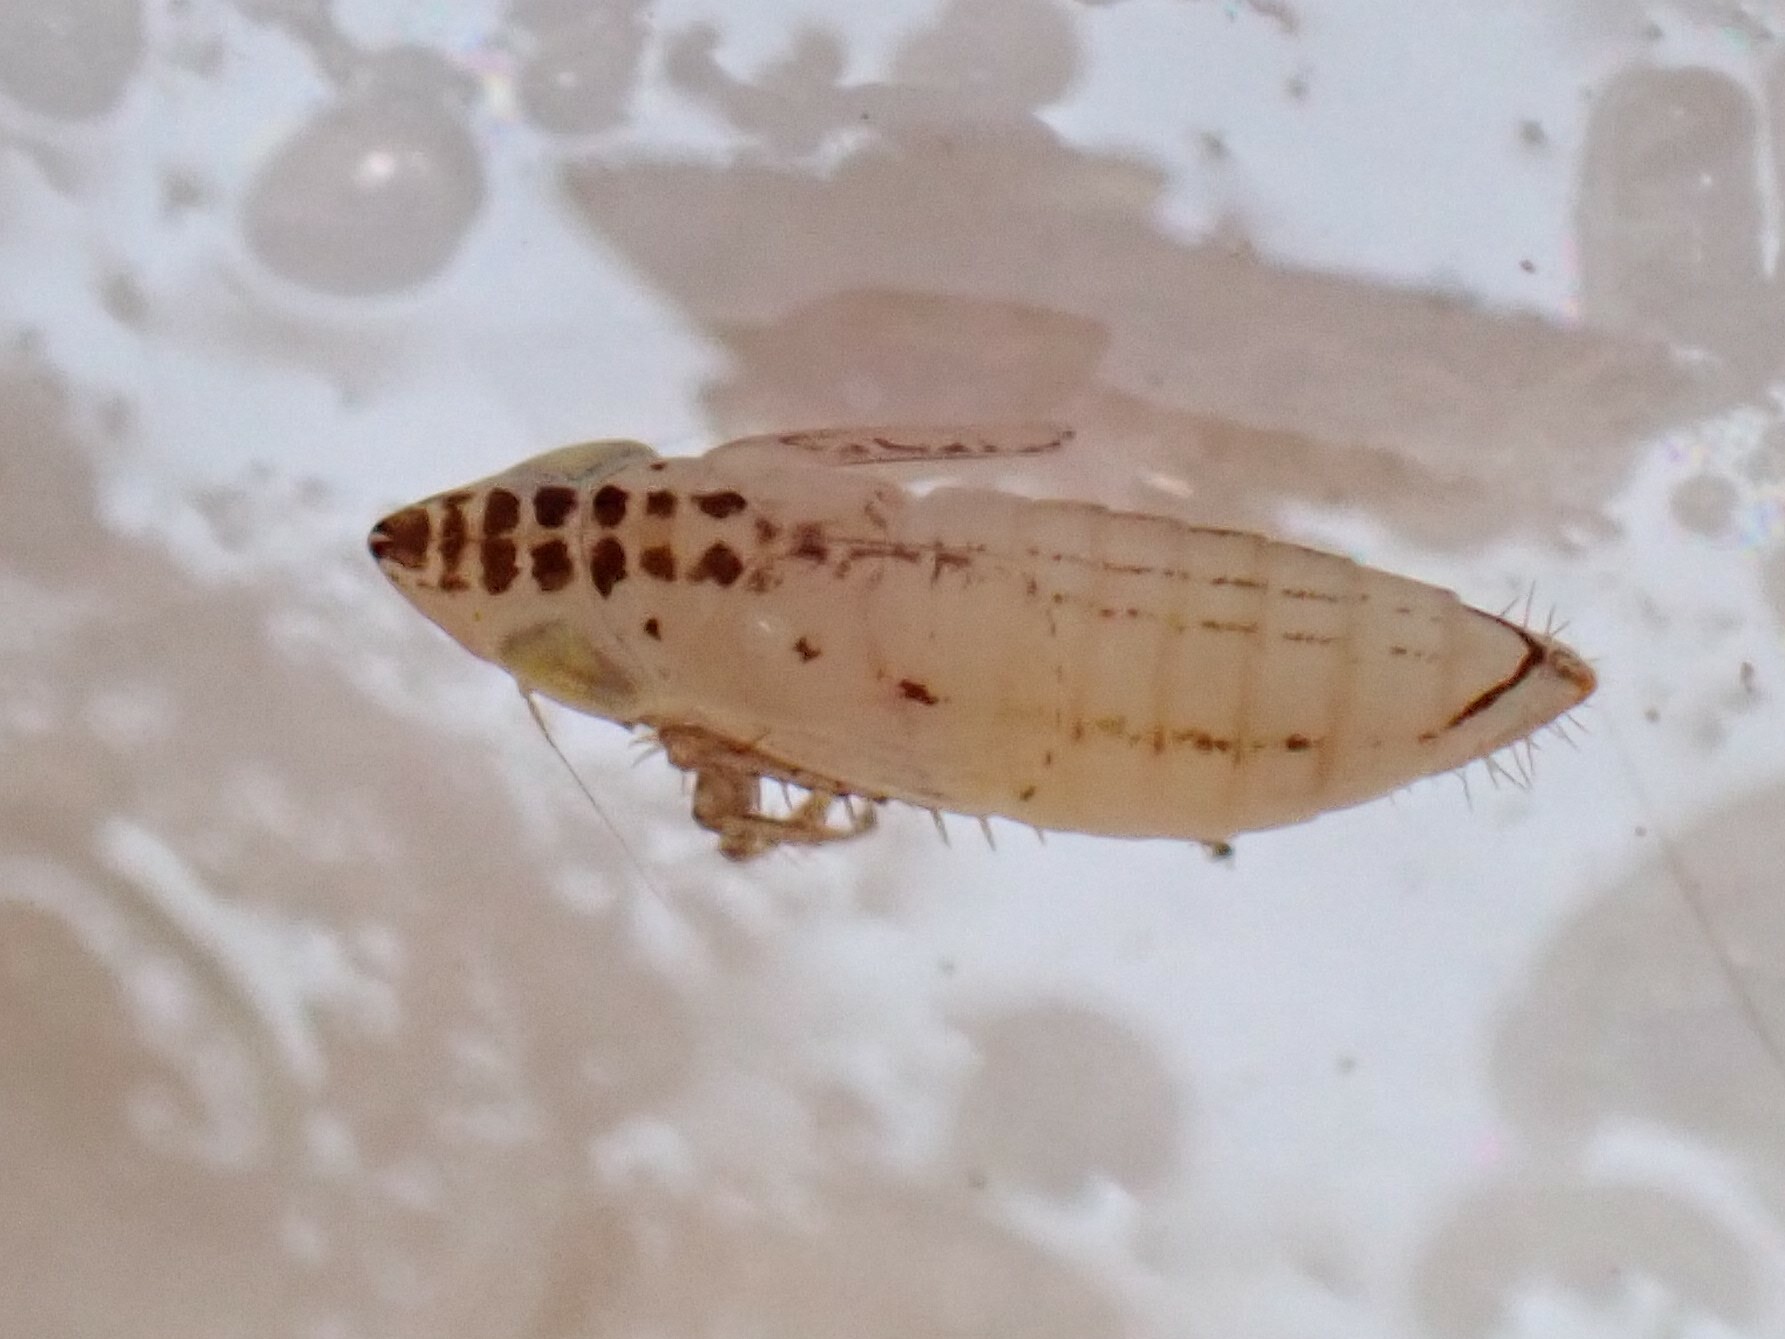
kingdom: Animalia
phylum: Arthropoda
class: Insecta
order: Hemiptera
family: Cicadellidae
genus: Aflexia
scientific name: Aflexia rubranura
